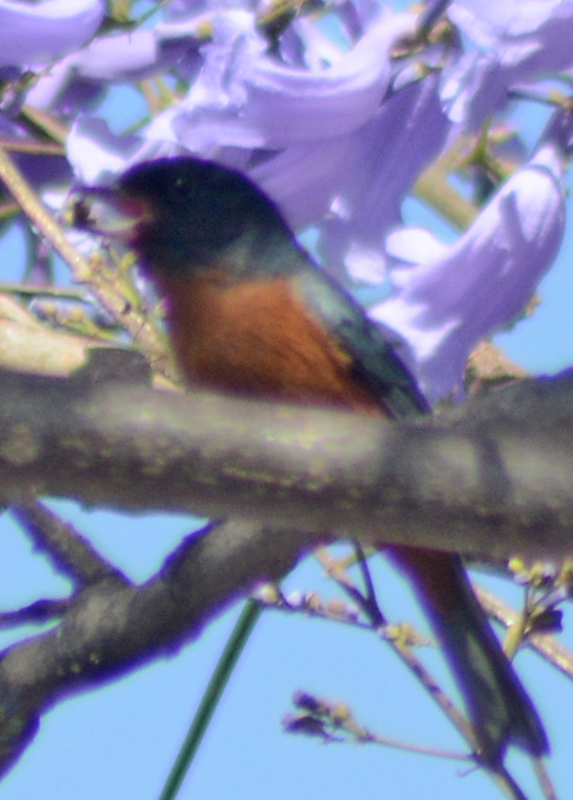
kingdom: Animalia
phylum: Chordata
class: Aves
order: Passeriformes
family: Thraupidae
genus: Diglossa
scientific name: Diglossa baritula
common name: Cinnamon-bellied flowerpiercer
